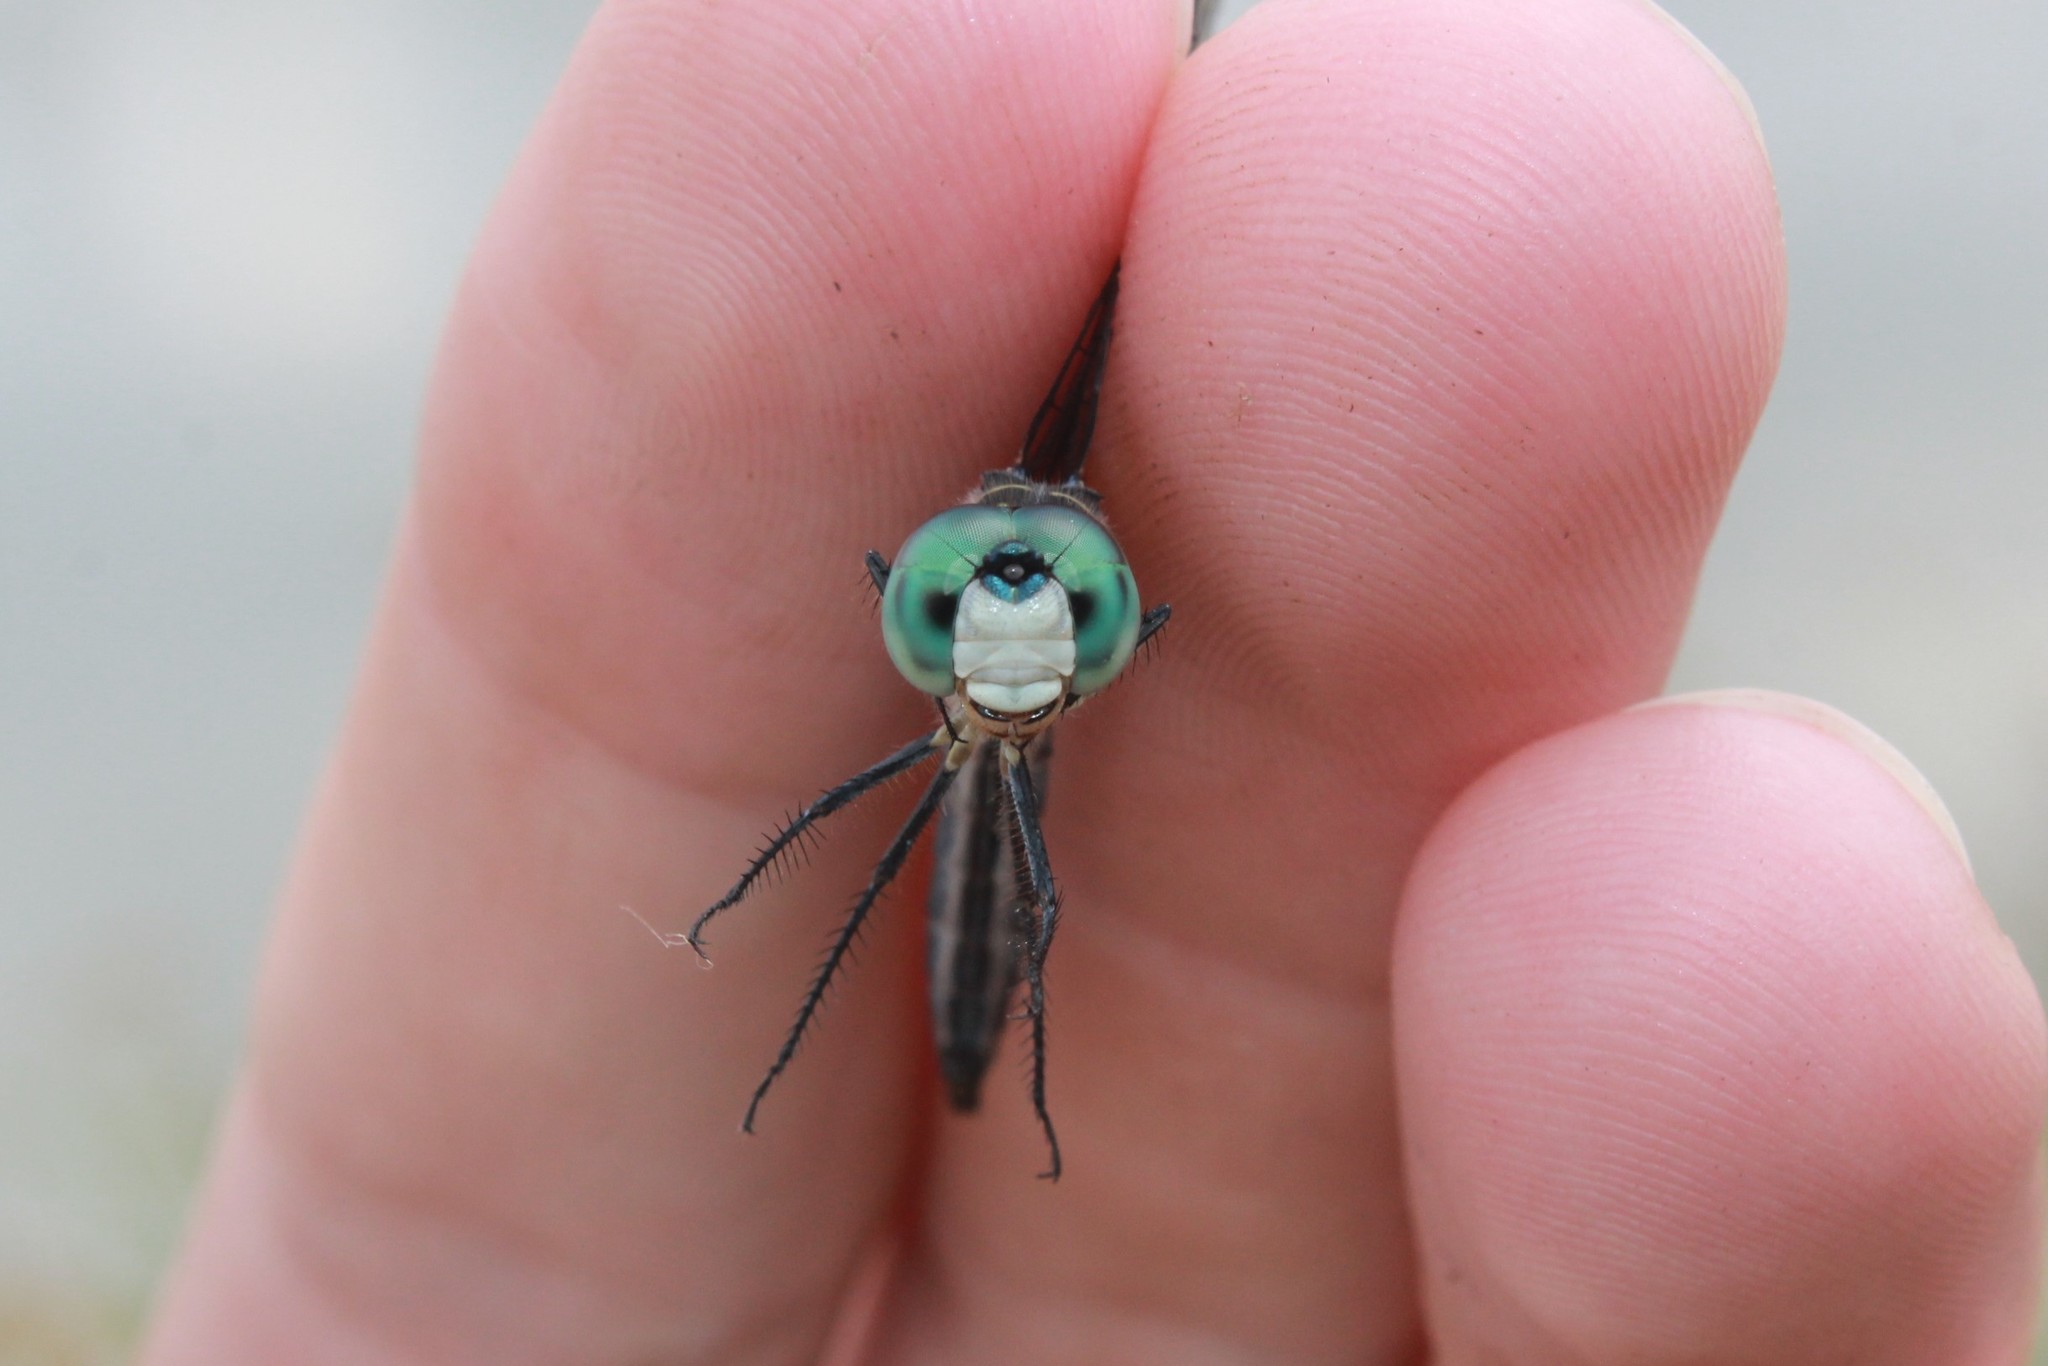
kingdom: Animalia
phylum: Arthropoda
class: Insecta
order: Odonata
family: Libellulidae
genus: Pachydiplax
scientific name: Pachydiplax longipennis
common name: Blue dasher
